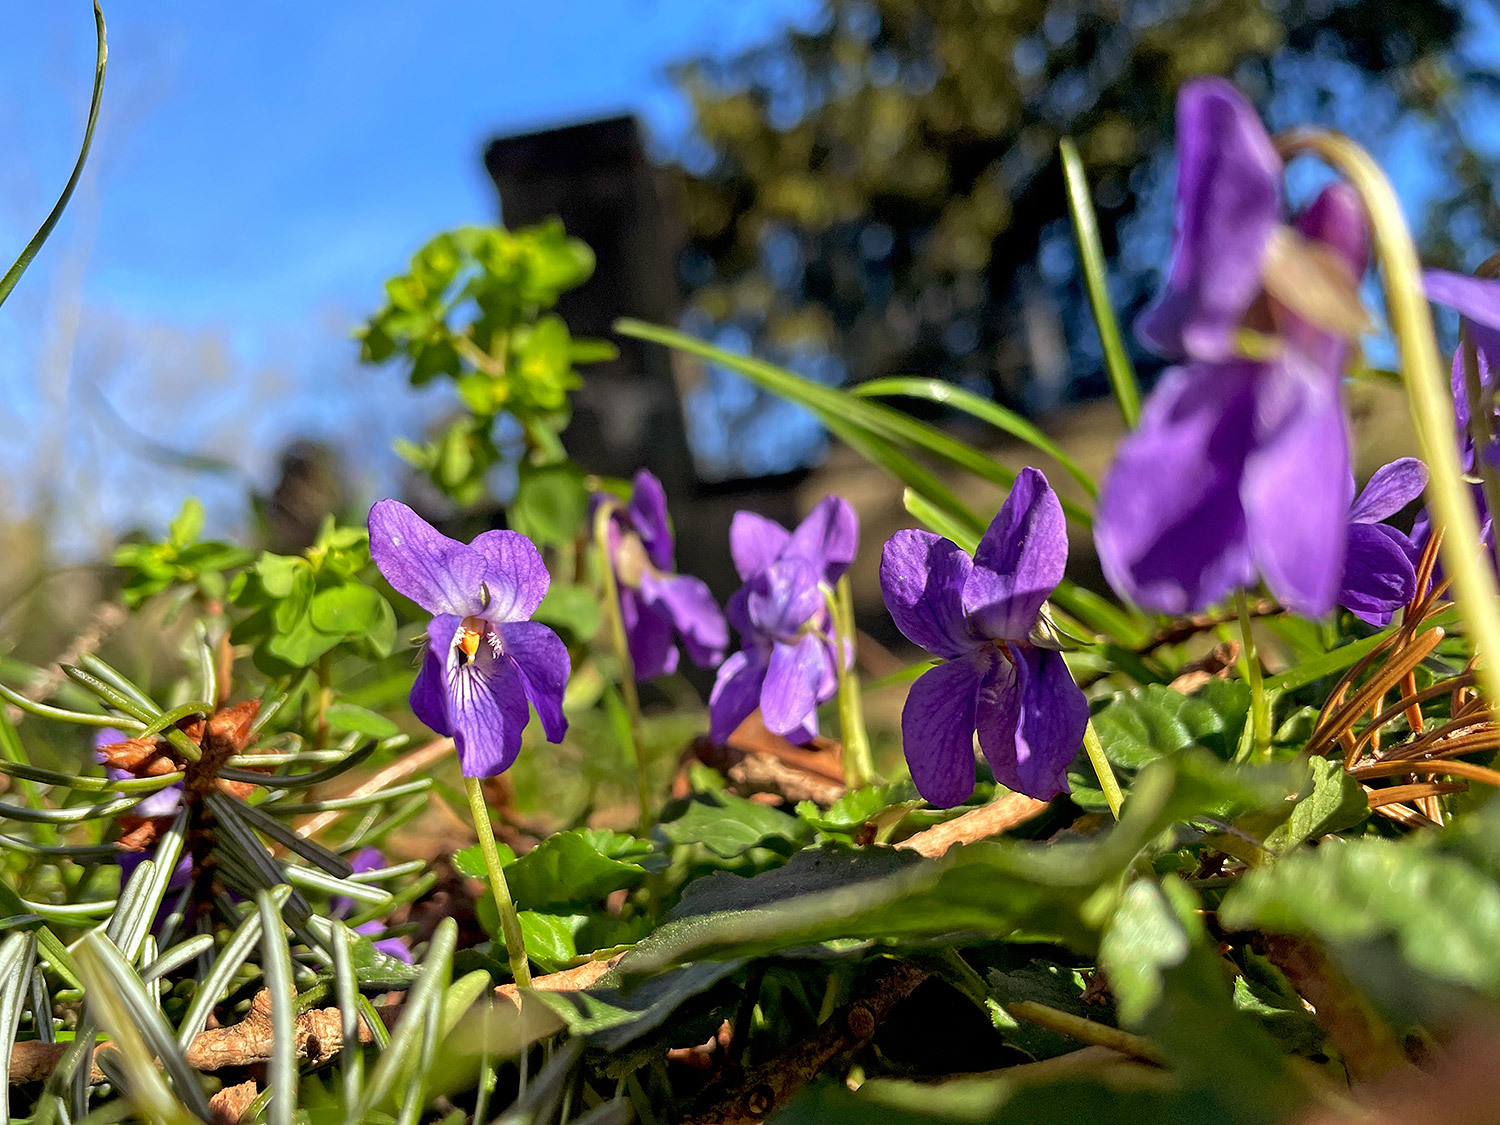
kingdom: Plantae
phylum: Tracheophyta
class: Magnoliopsida
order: Malpighiales
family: Violaceae
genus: Viola
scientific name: Viola odorata
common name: Sweet violet
